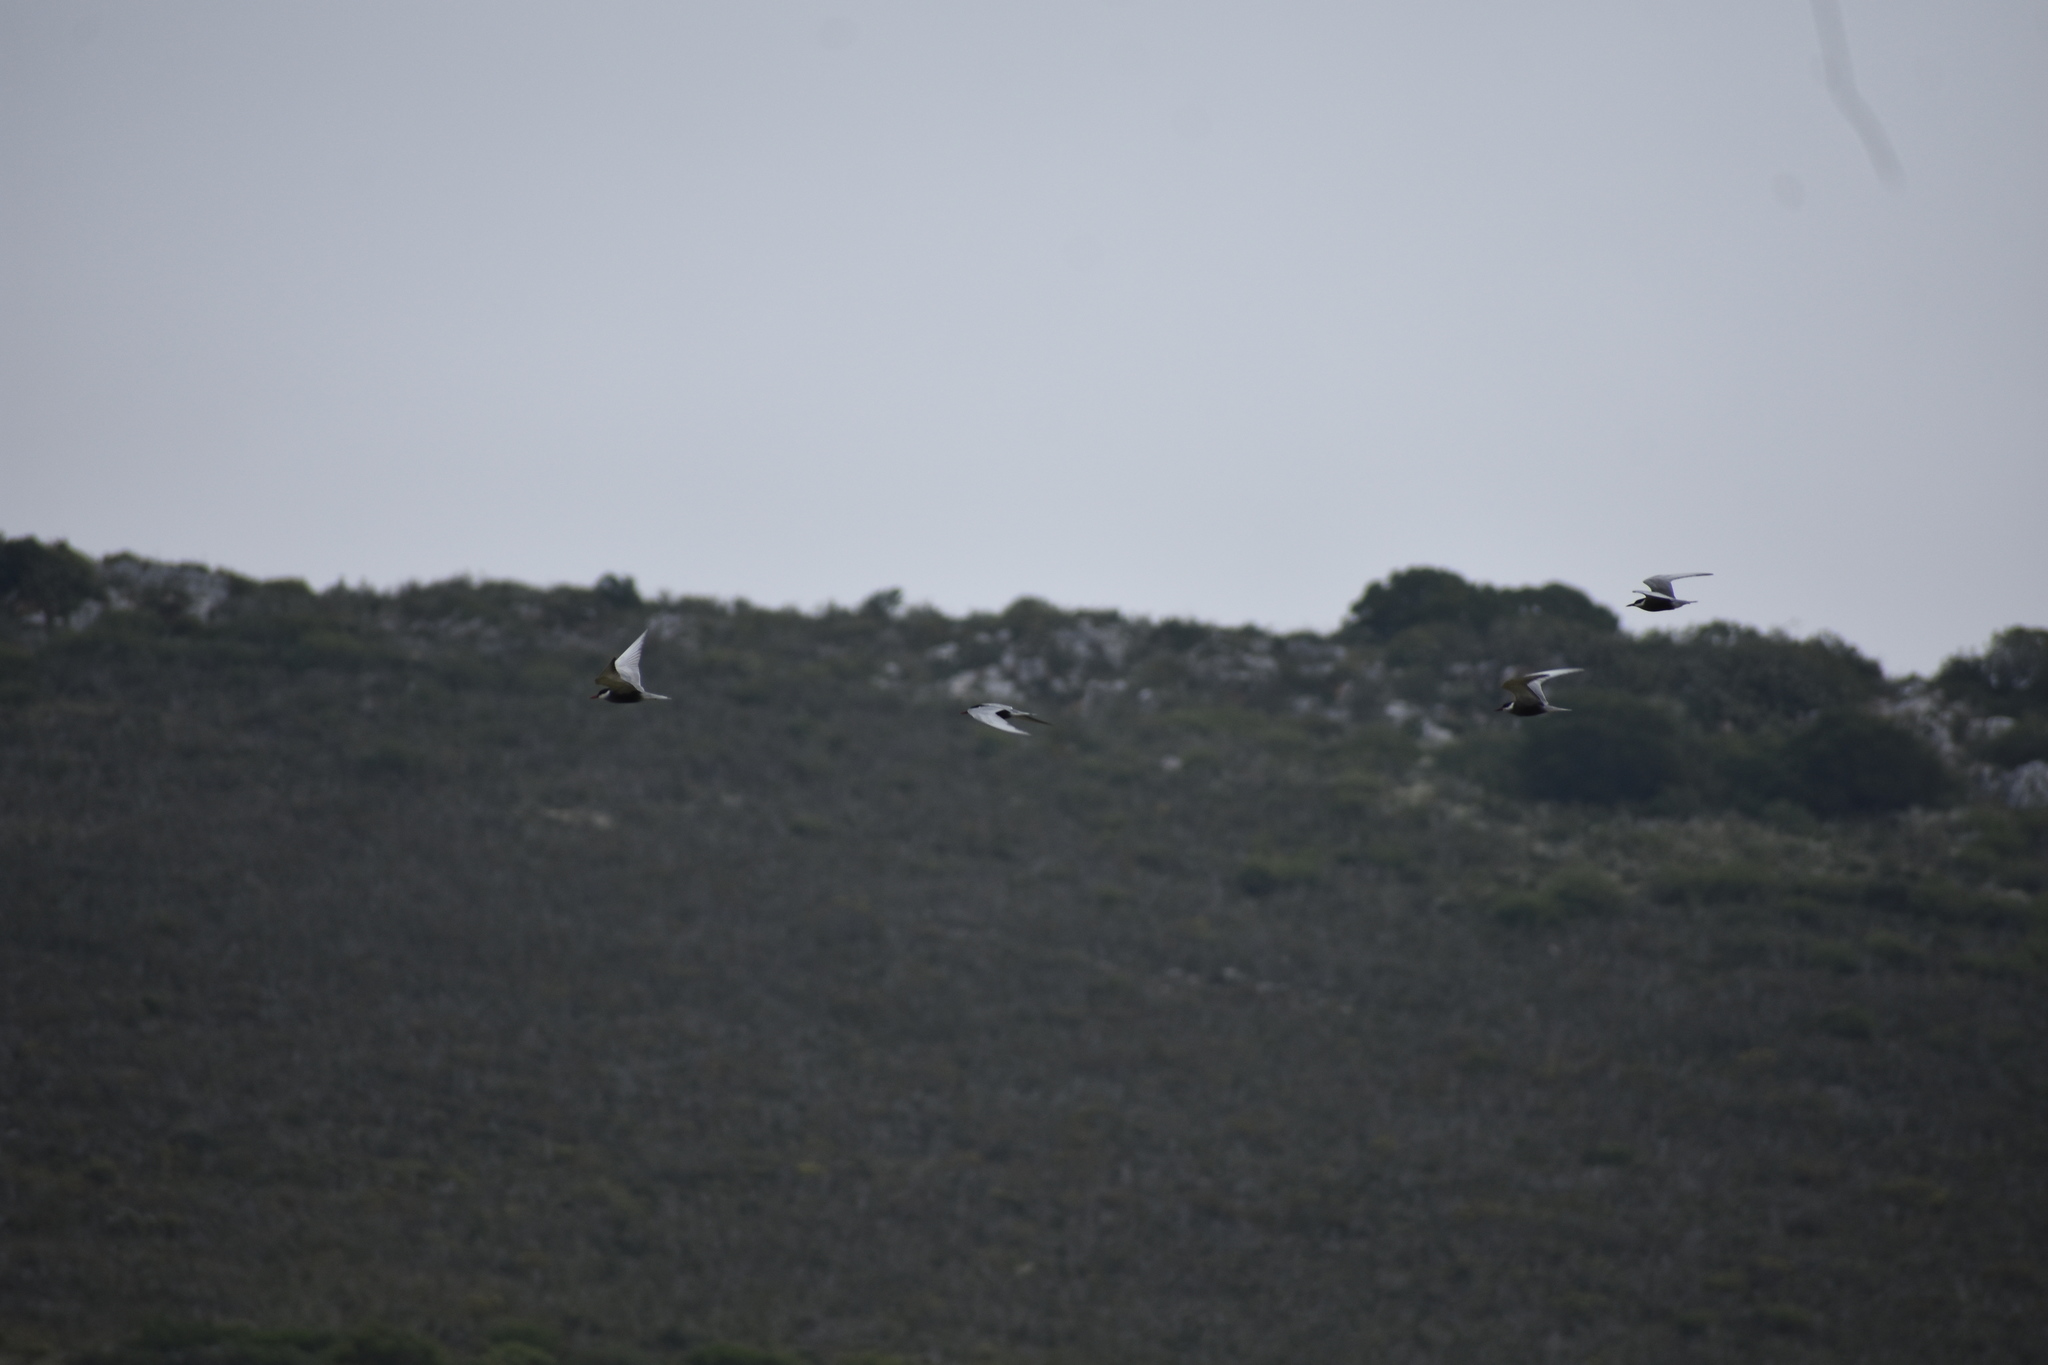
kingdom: Animalia
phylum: Chordata
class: Aves
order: Charadriiformes
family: Laridae
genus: Chlidonias
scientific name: Chlidonias hybrida
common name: Whiskered tern
